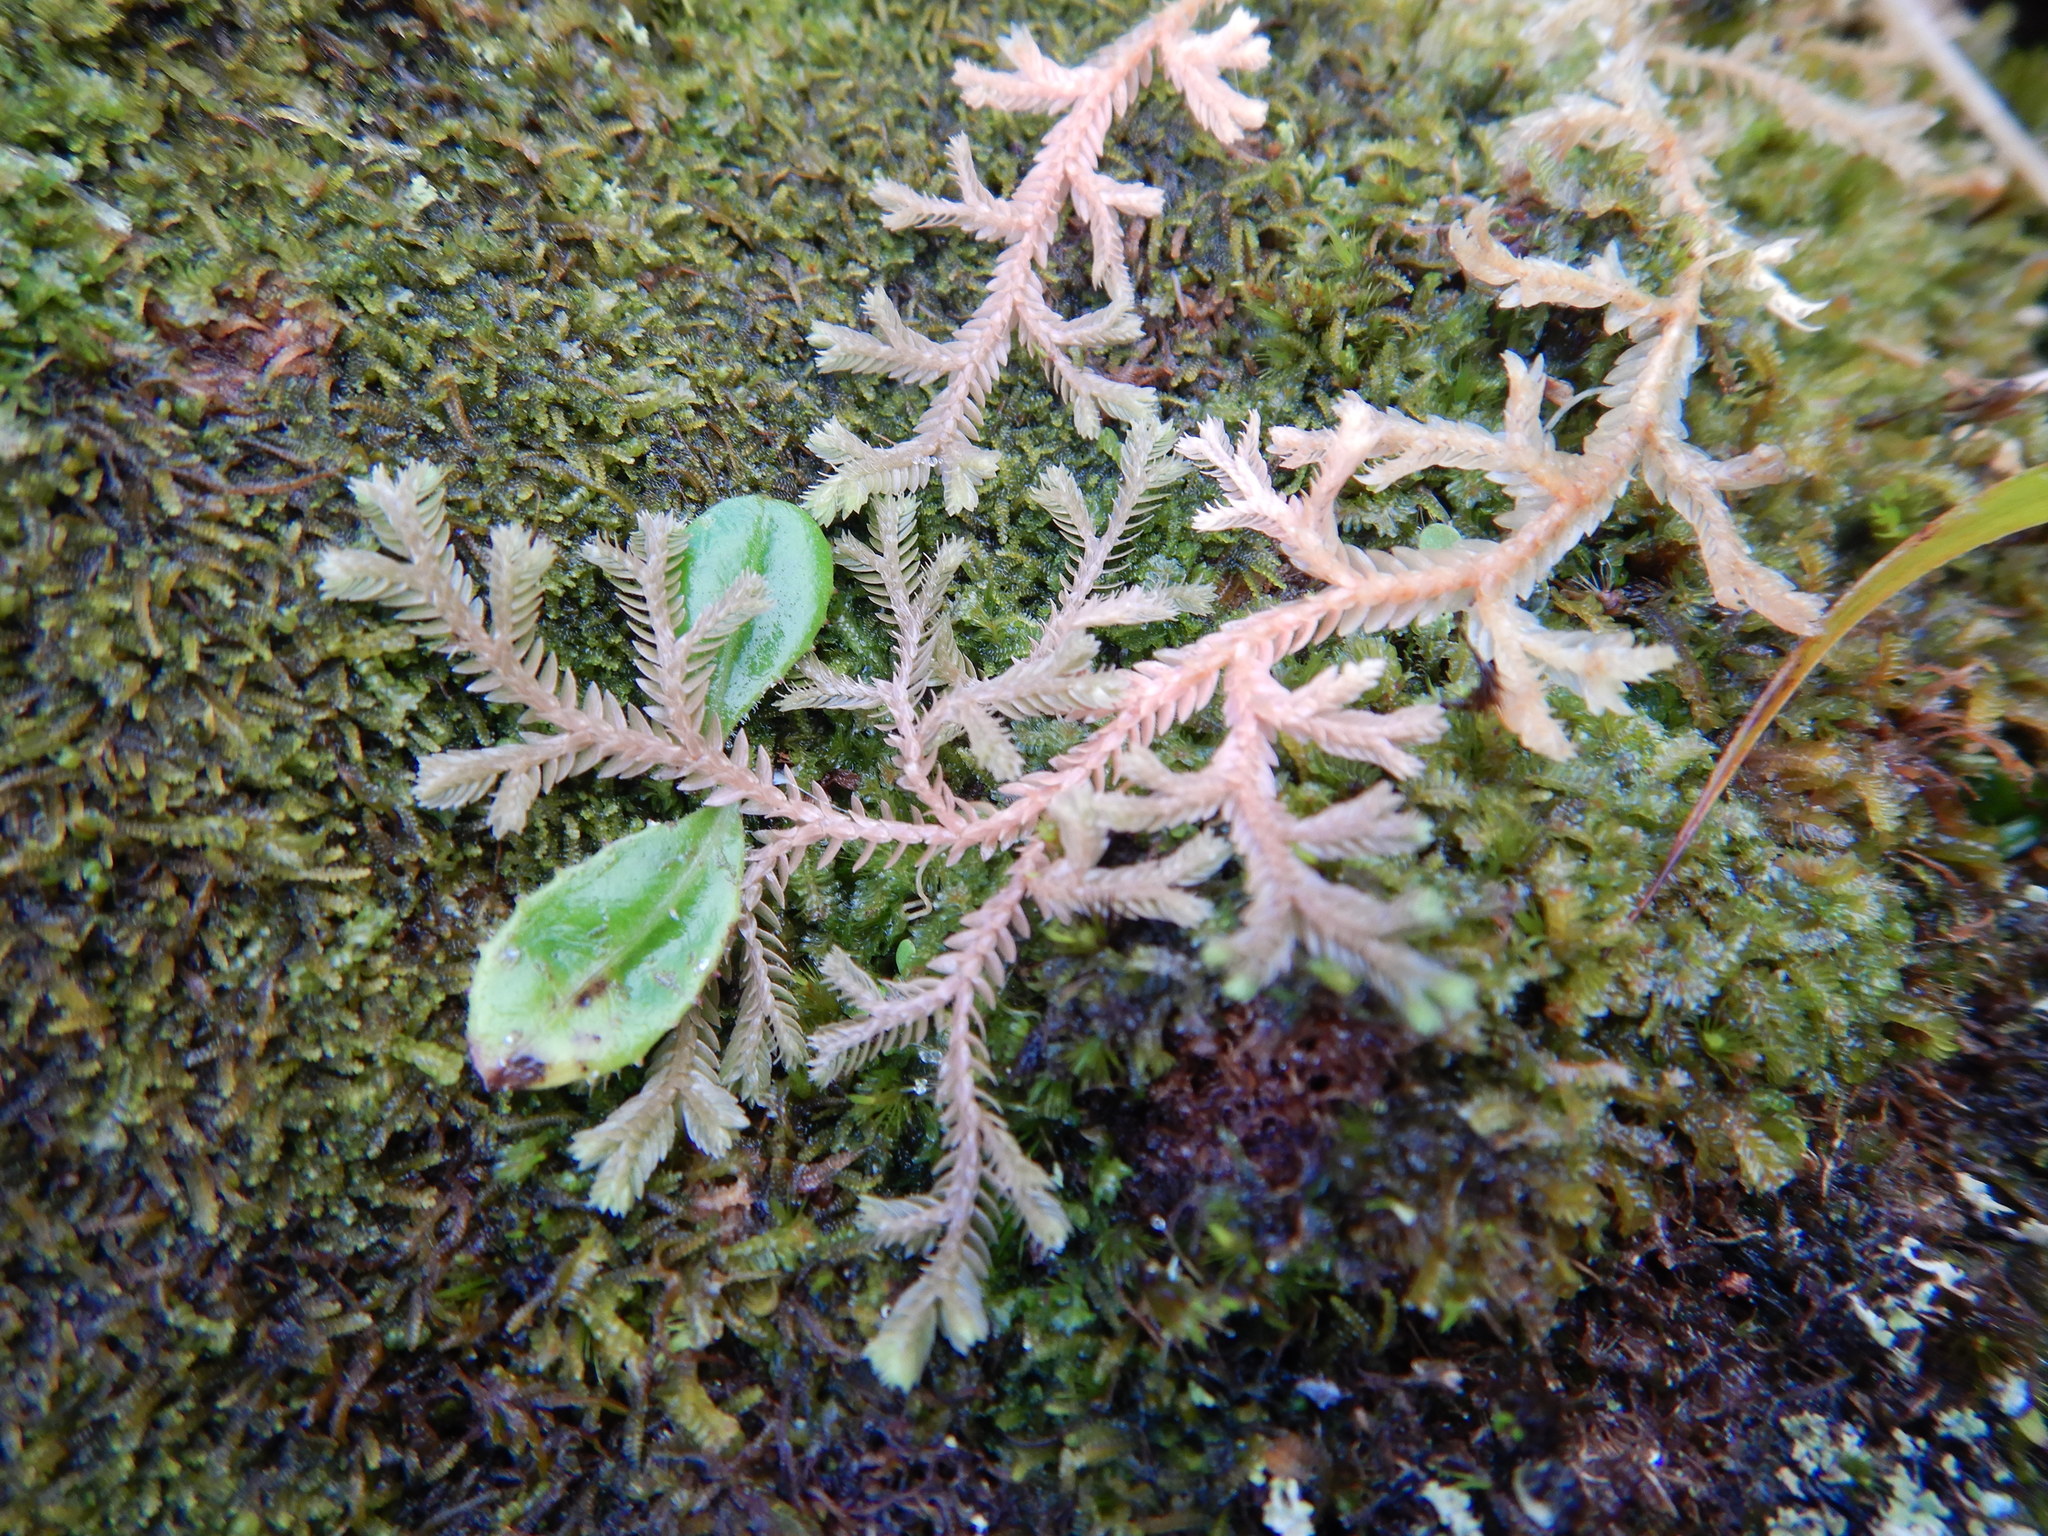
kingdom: Plantae
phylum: Tracheophyta
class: Lycopodiopsida
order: Selaginellales
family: Selaginellaceae
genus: Selaginella
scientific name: Selaginella kraussiana
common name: Krauss' spikemoss
